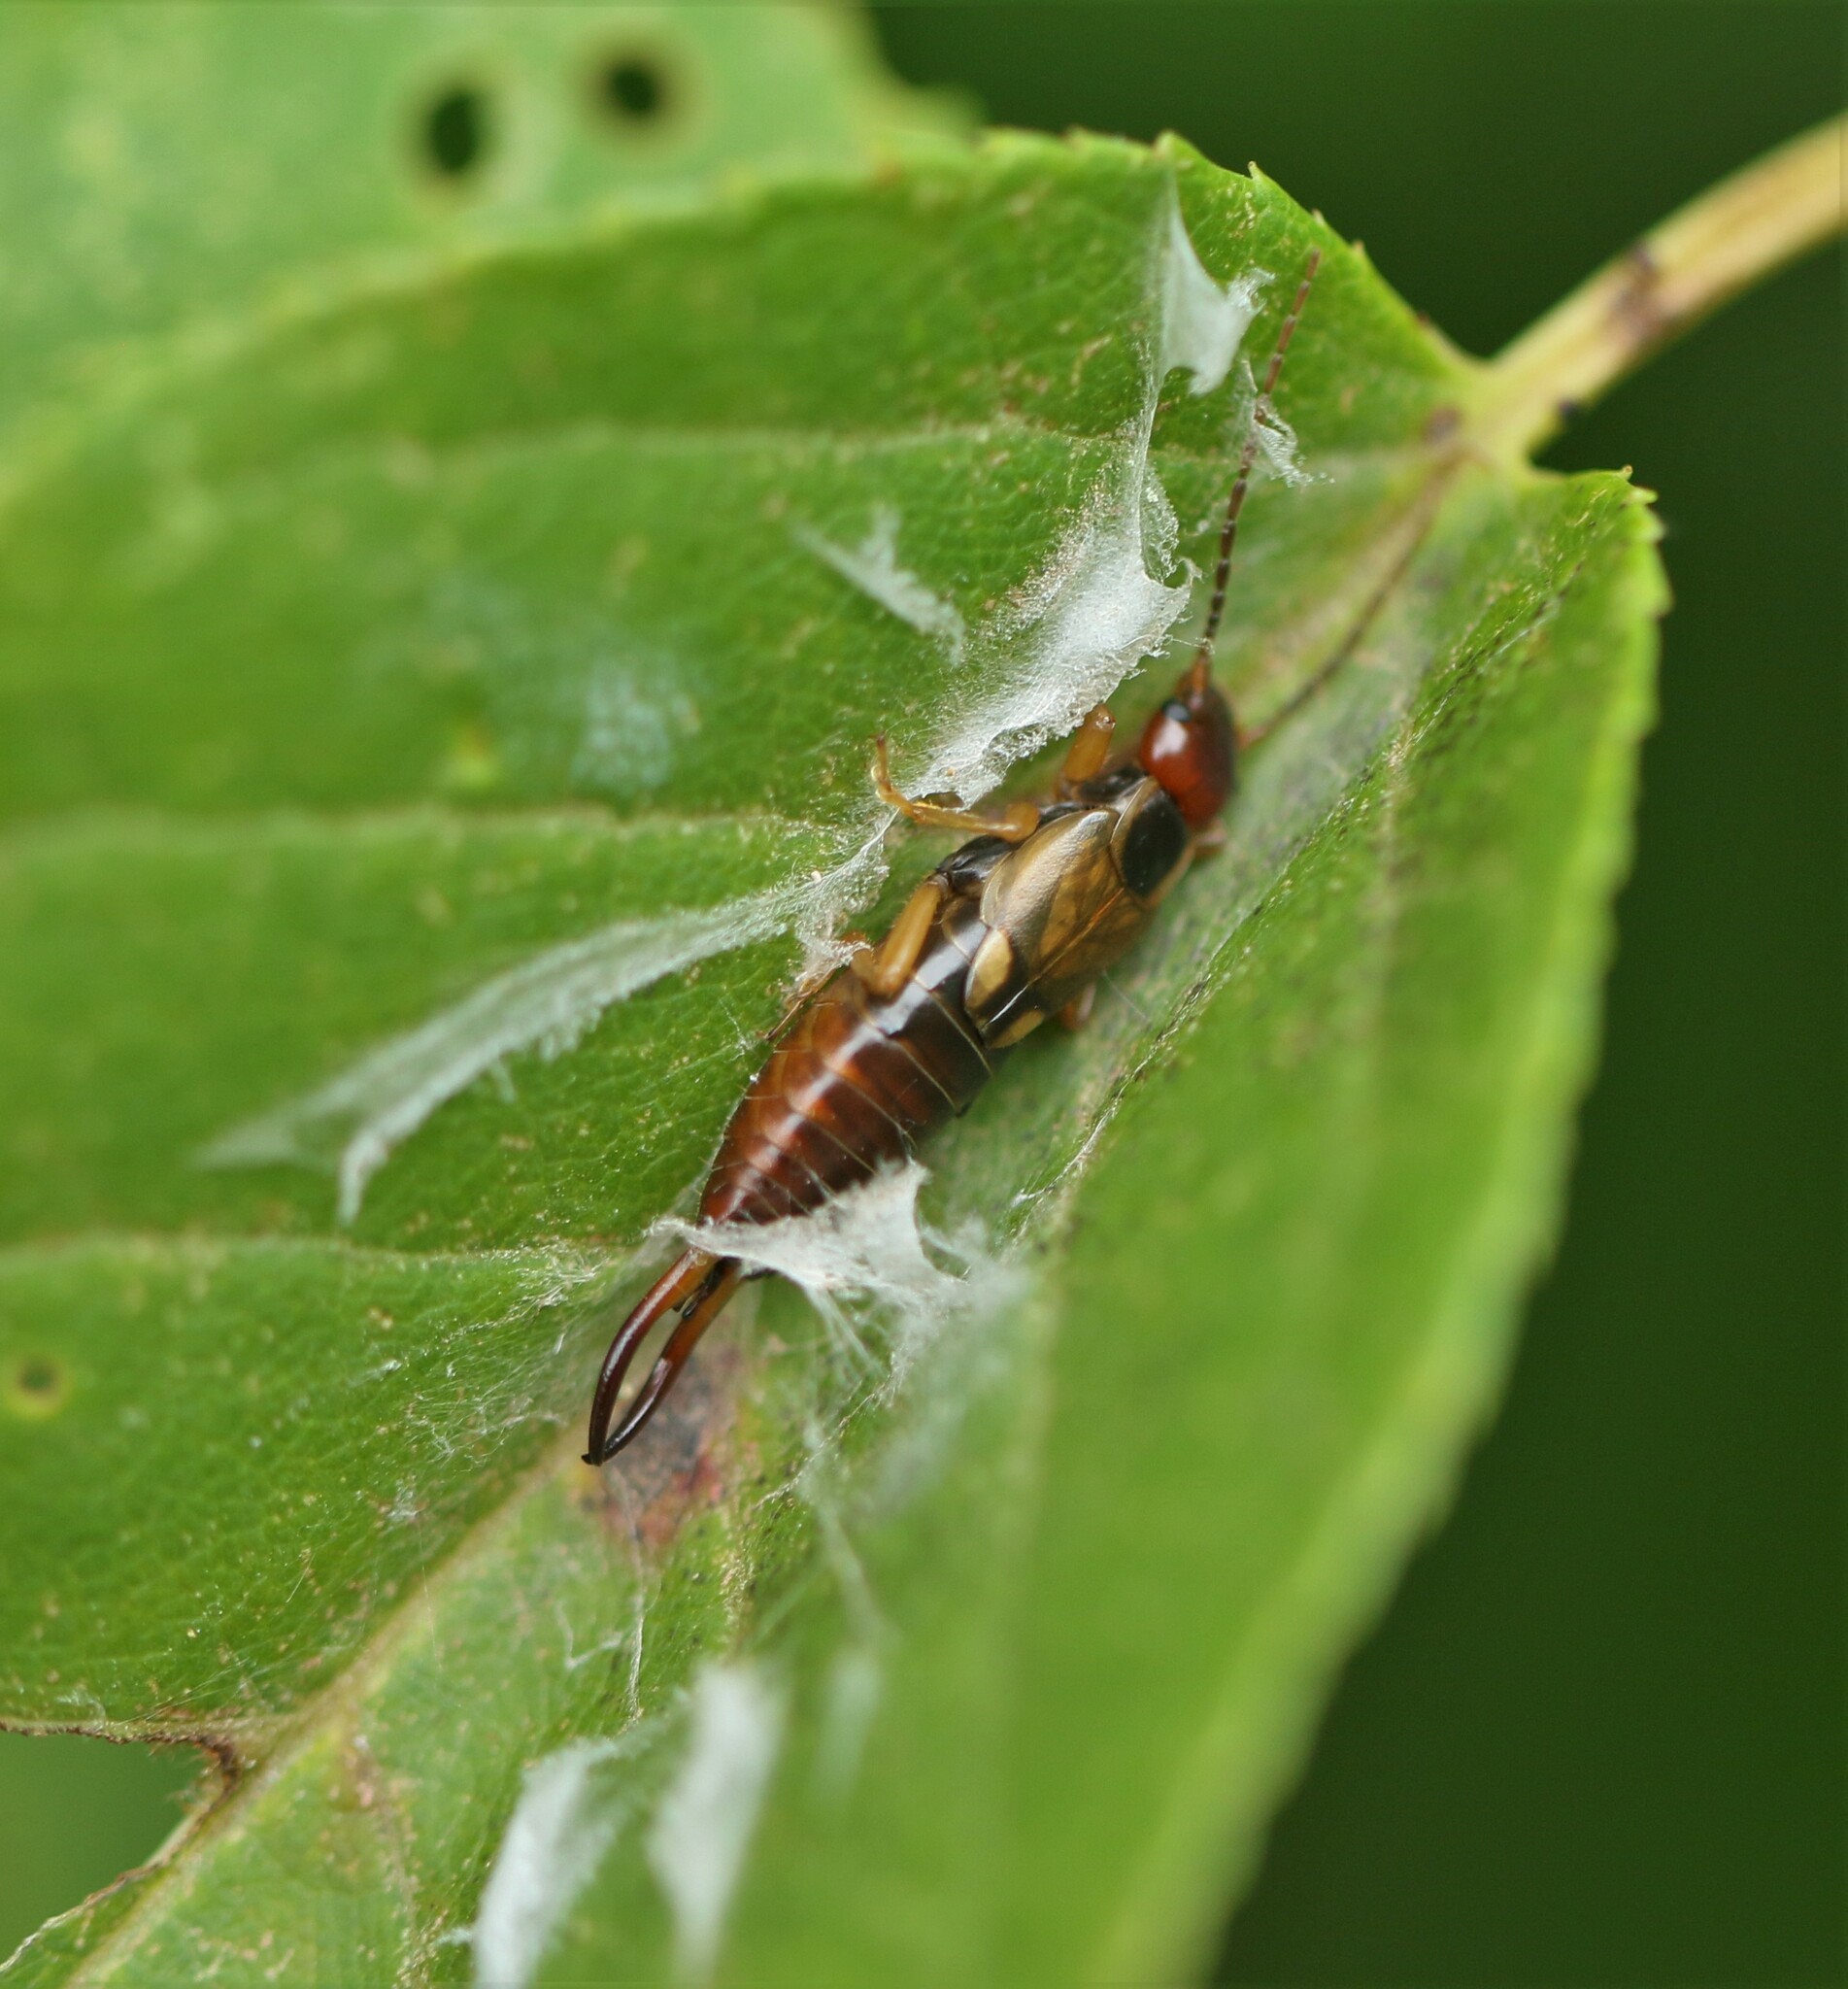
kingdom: Animalia
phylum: Arthropoda
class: Insecta
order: Dermaptera
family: Forficulidae
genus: Forficula
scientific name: Forficula
